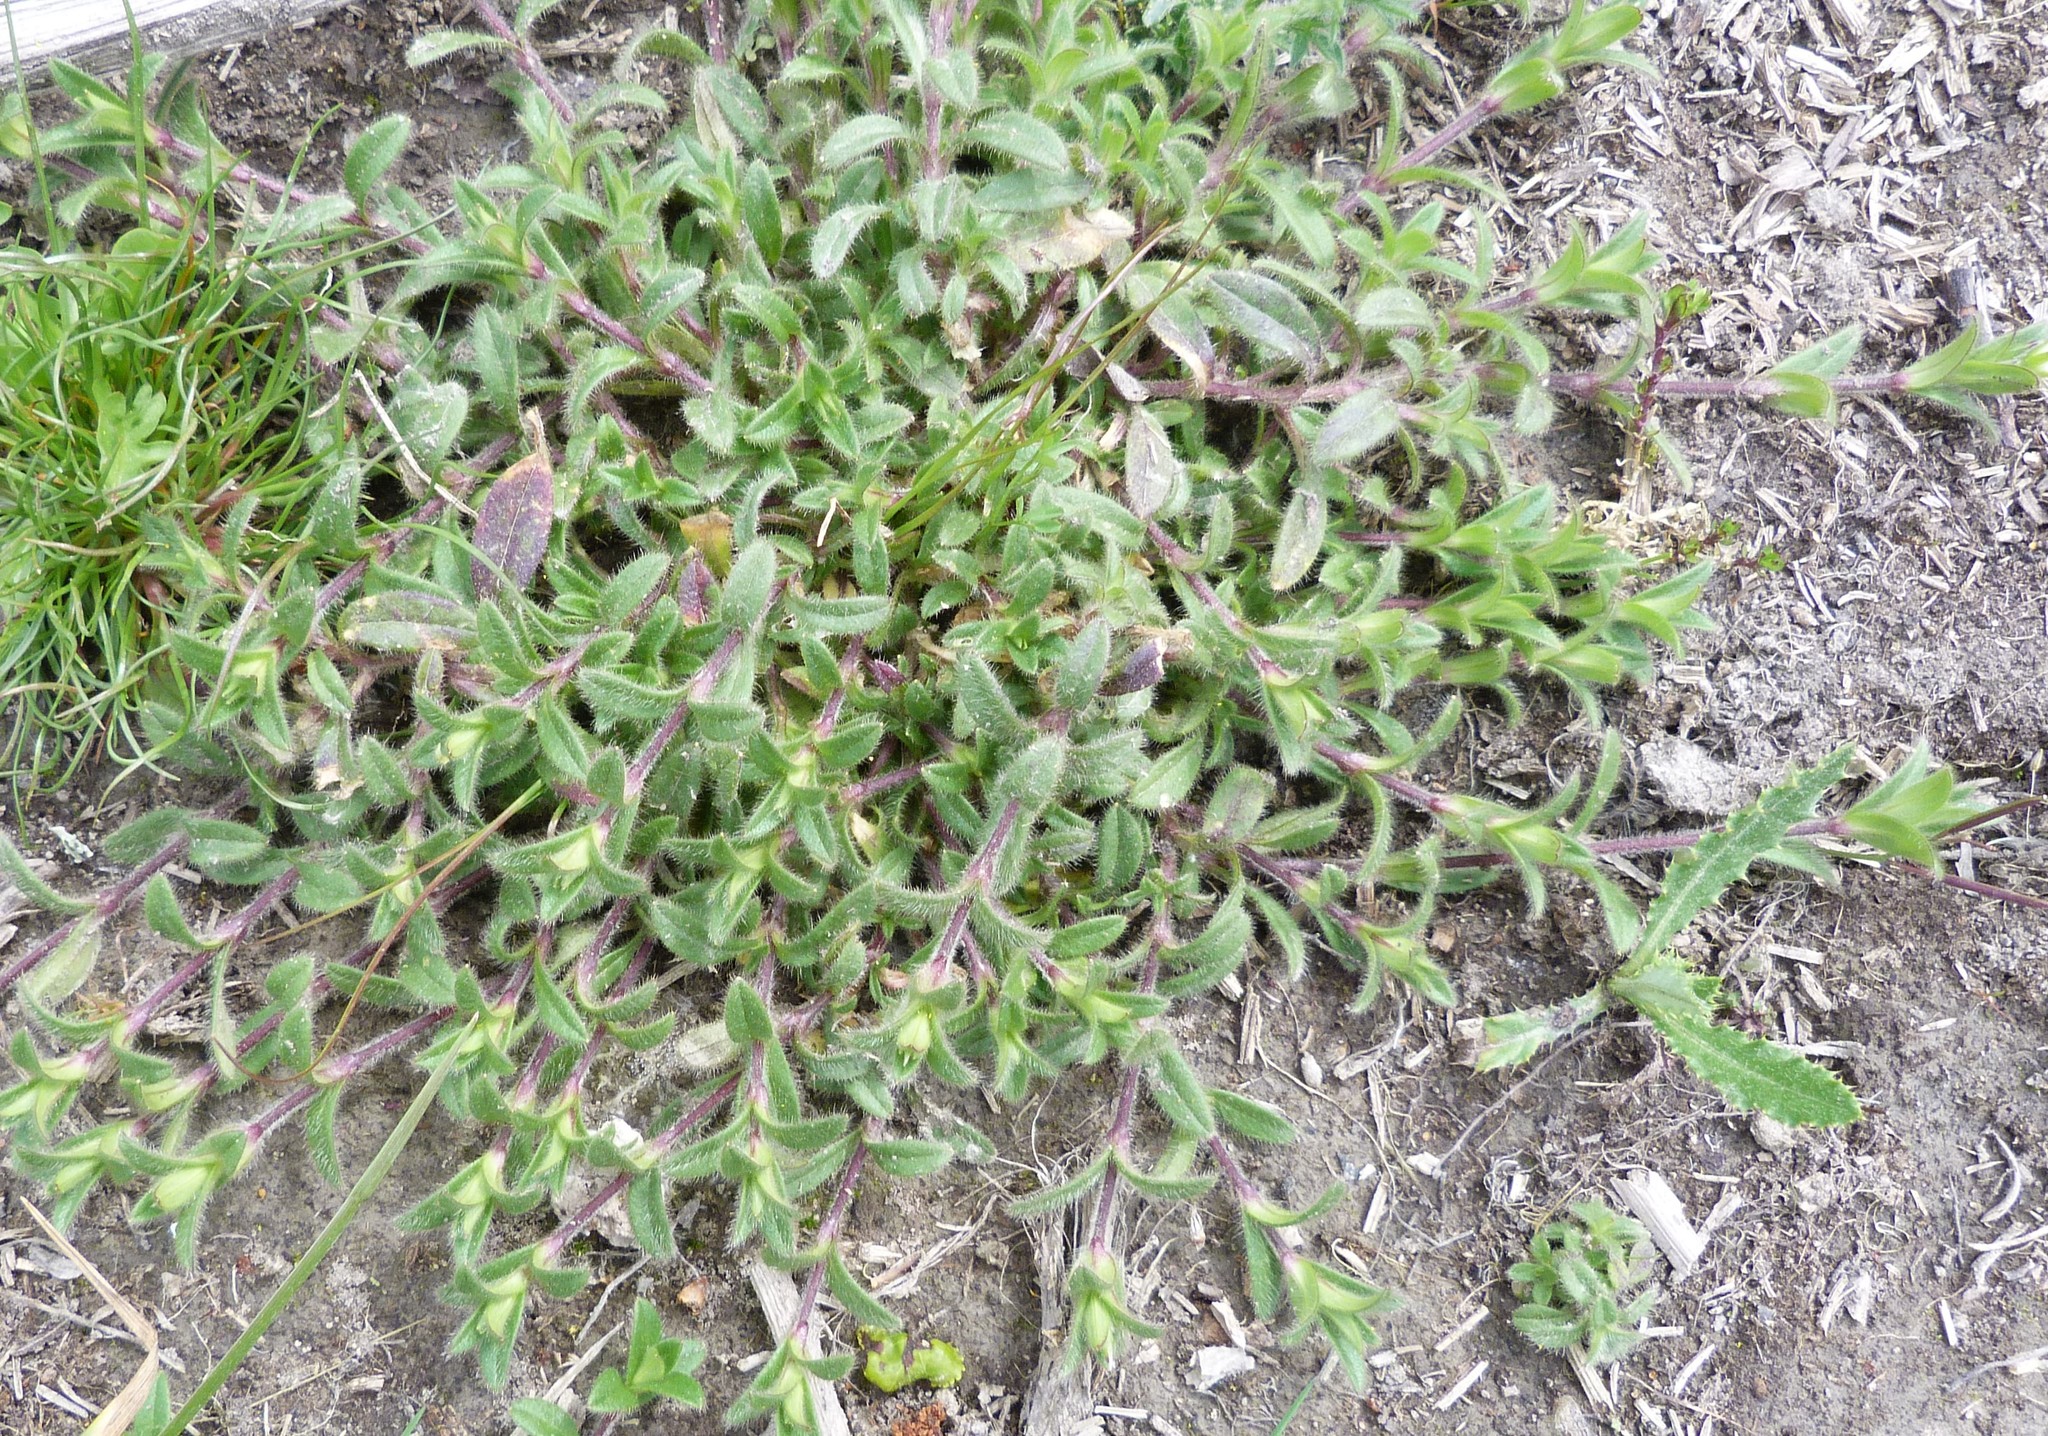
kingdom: Plantae
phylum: Tracheophyta
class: Magnoliopsida
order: Caryophyllales
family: Caryophyllaceae
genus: Cerastium
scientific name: Cerastium fontanum
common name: Common mouse-ear
